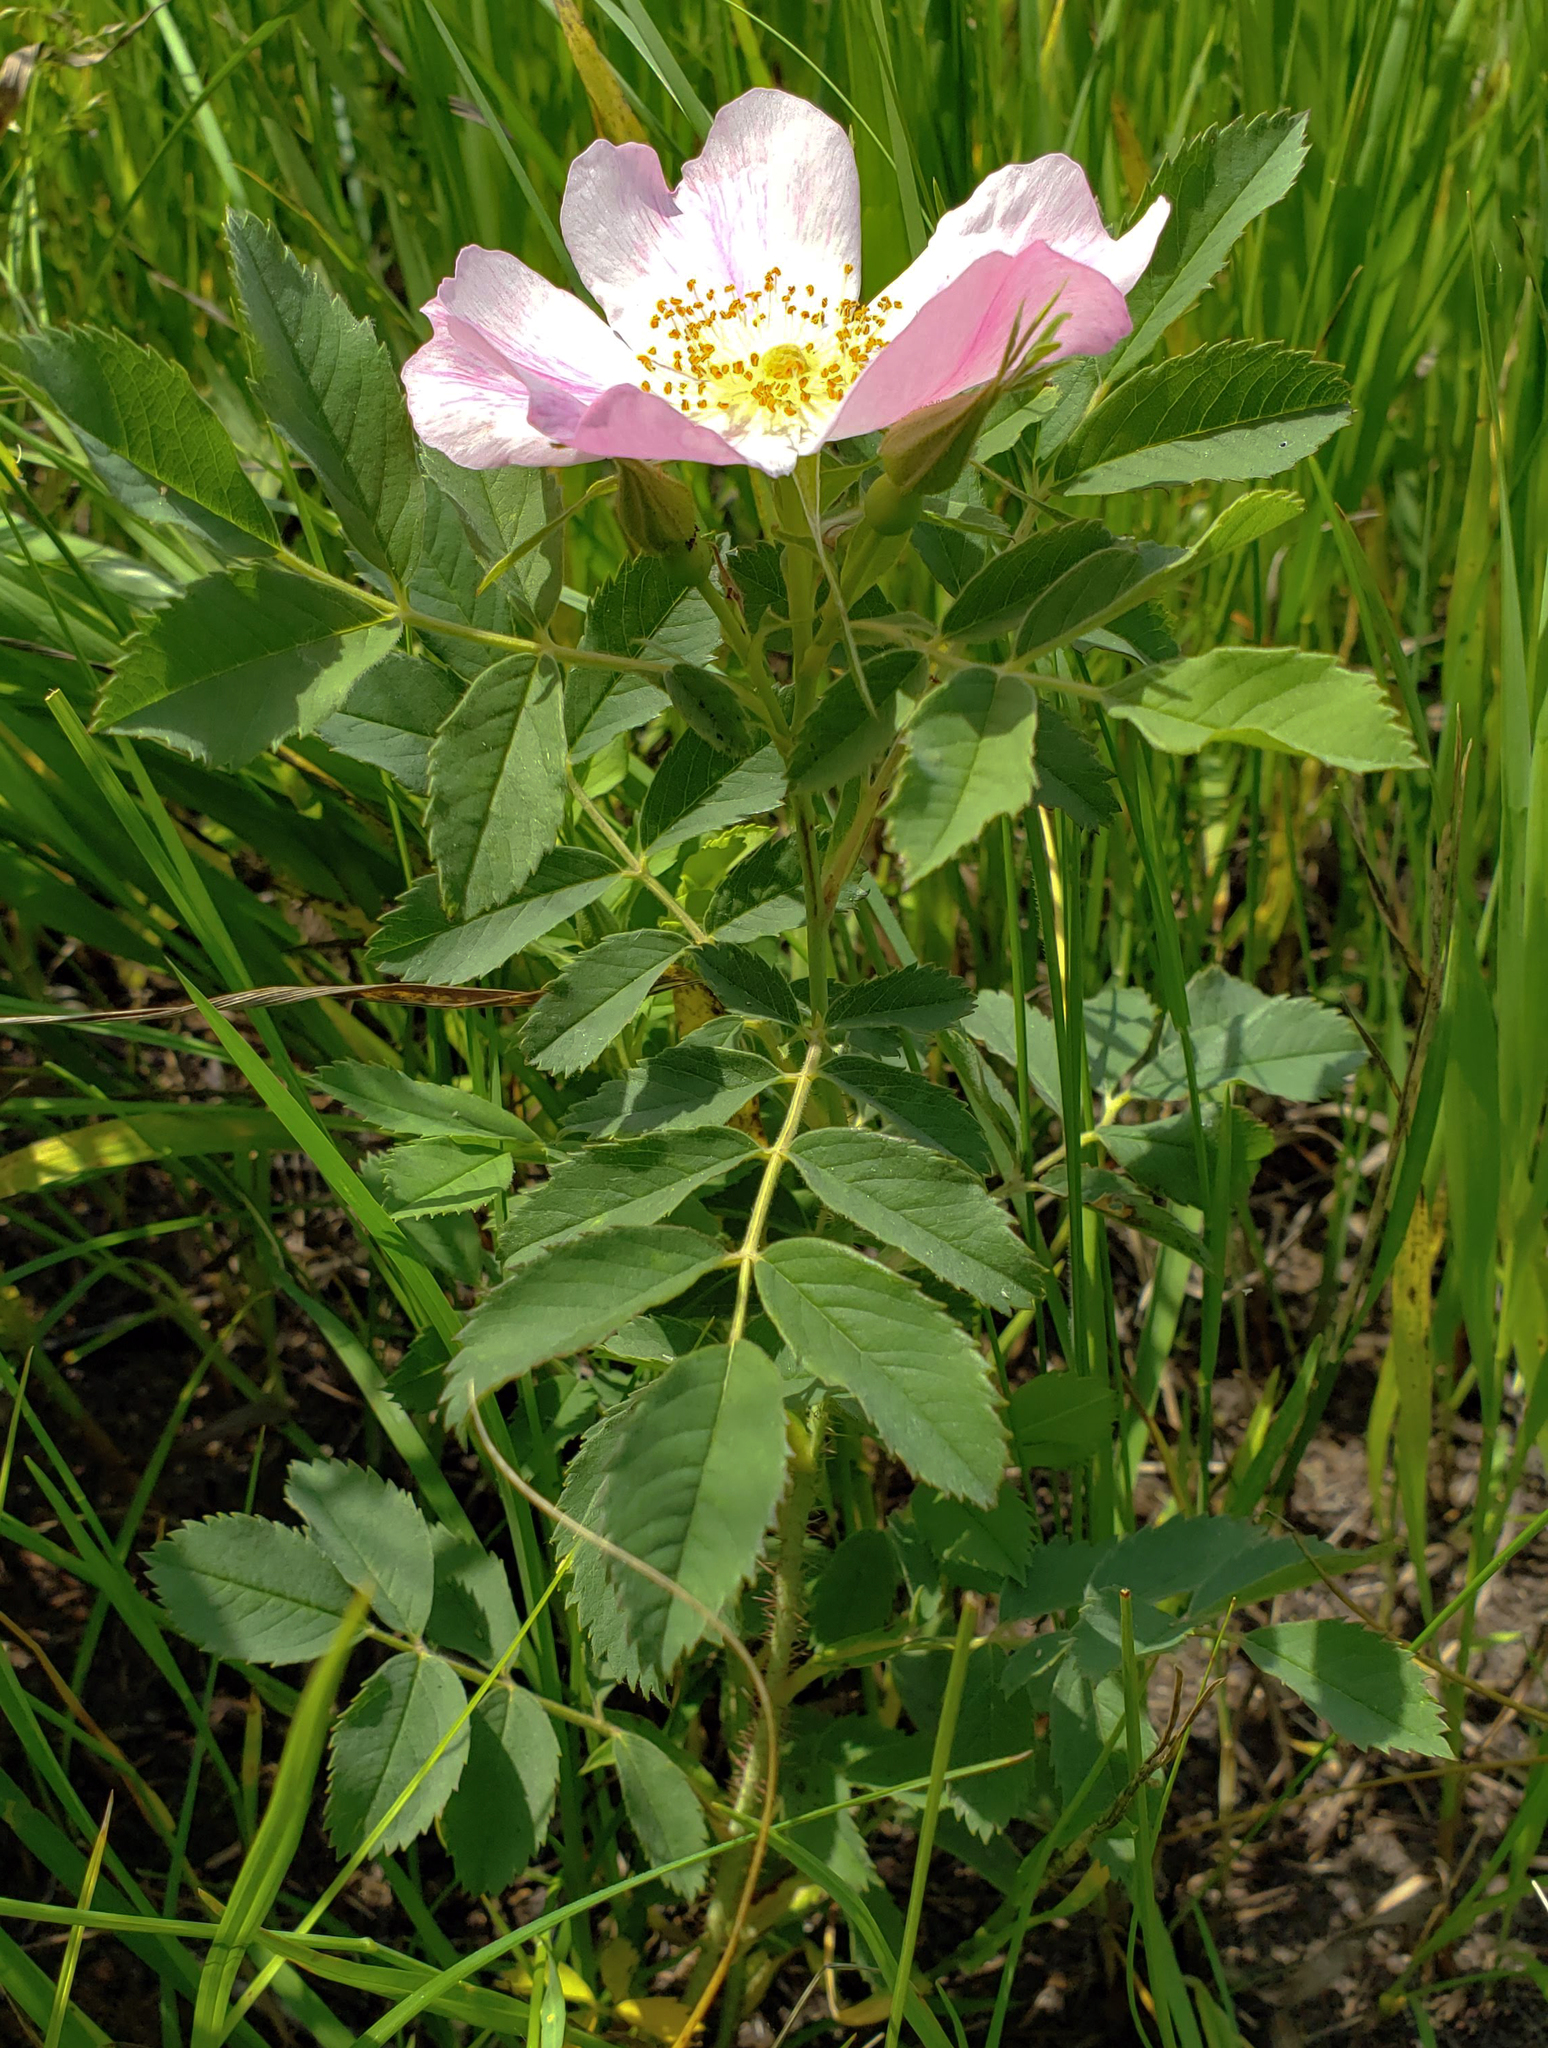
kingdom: Plantae
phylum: Tracheophyta
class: Magnoliopsida
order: Rosales
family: Rosaceae
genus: Rosa
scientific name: Rosa arkansana
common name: Prairie rose
